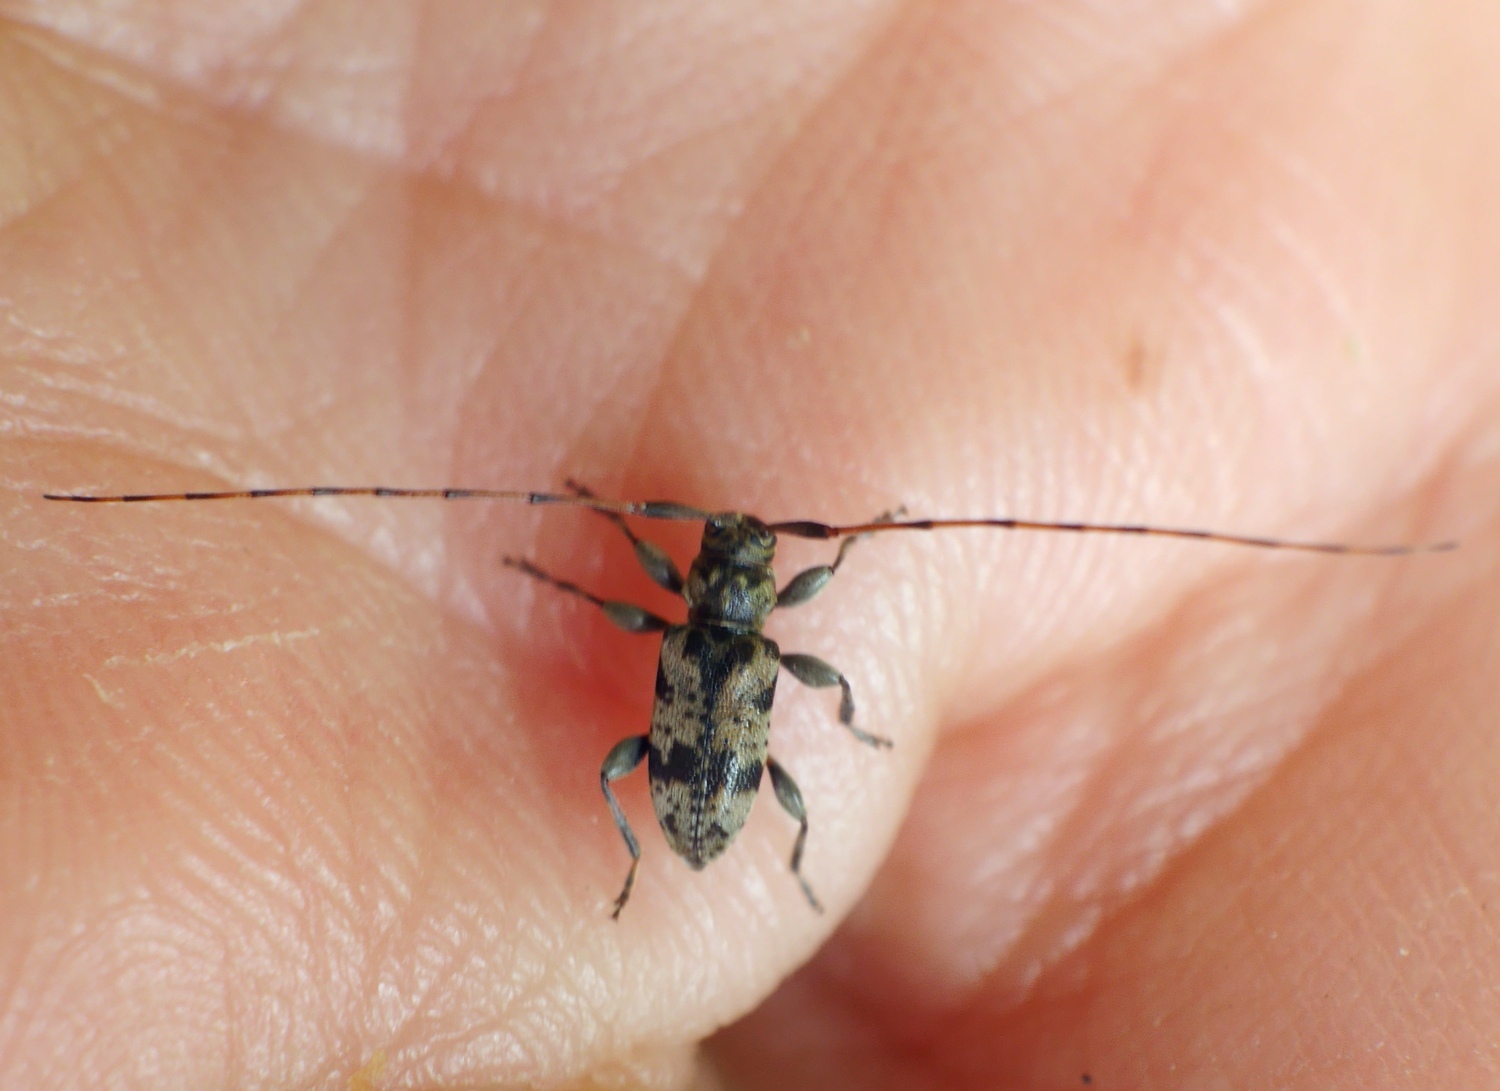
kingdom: Animalia
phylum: Arthropoda
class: Insecta
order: Coleoptera
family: Cerambycidae
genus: Leiopus
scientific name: Leiopus femoratus
